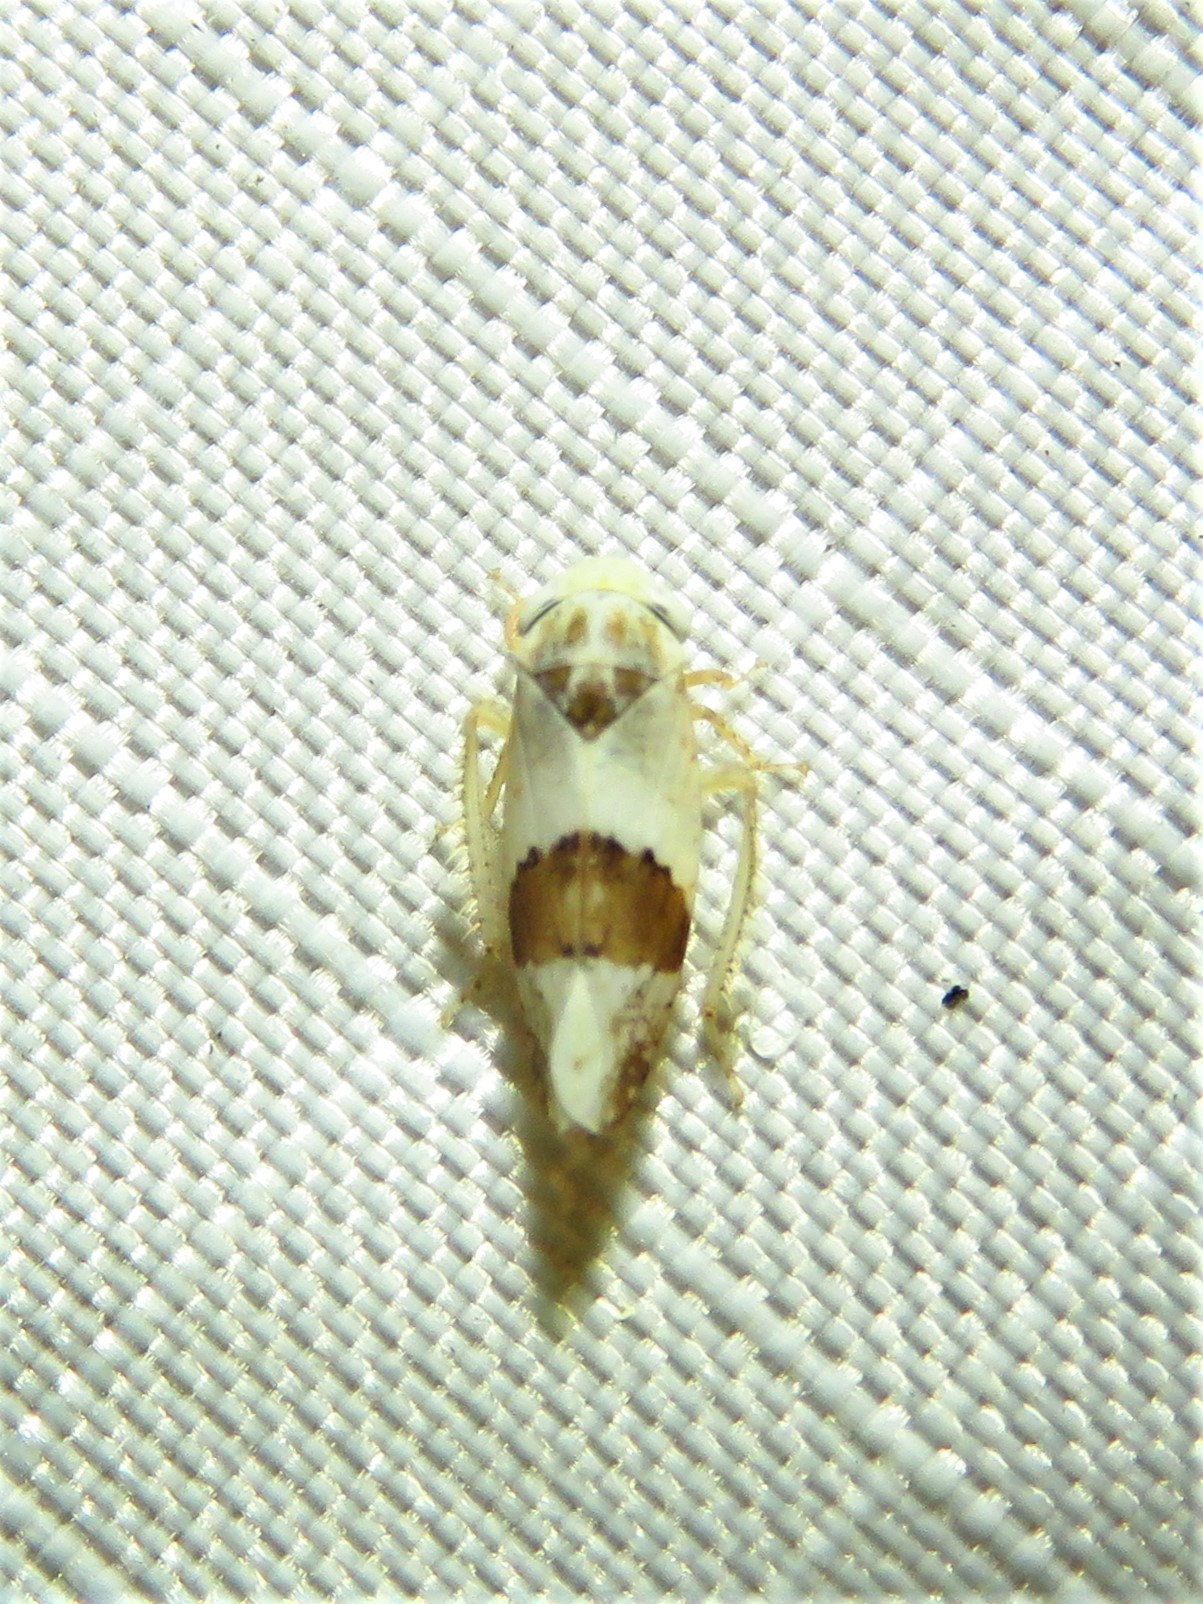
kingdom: Animalia
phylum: Arthropoda
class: Insecta
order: Hemiptera
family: Cicadellidae
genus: Norvellina
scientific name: Norvellina seminuda
